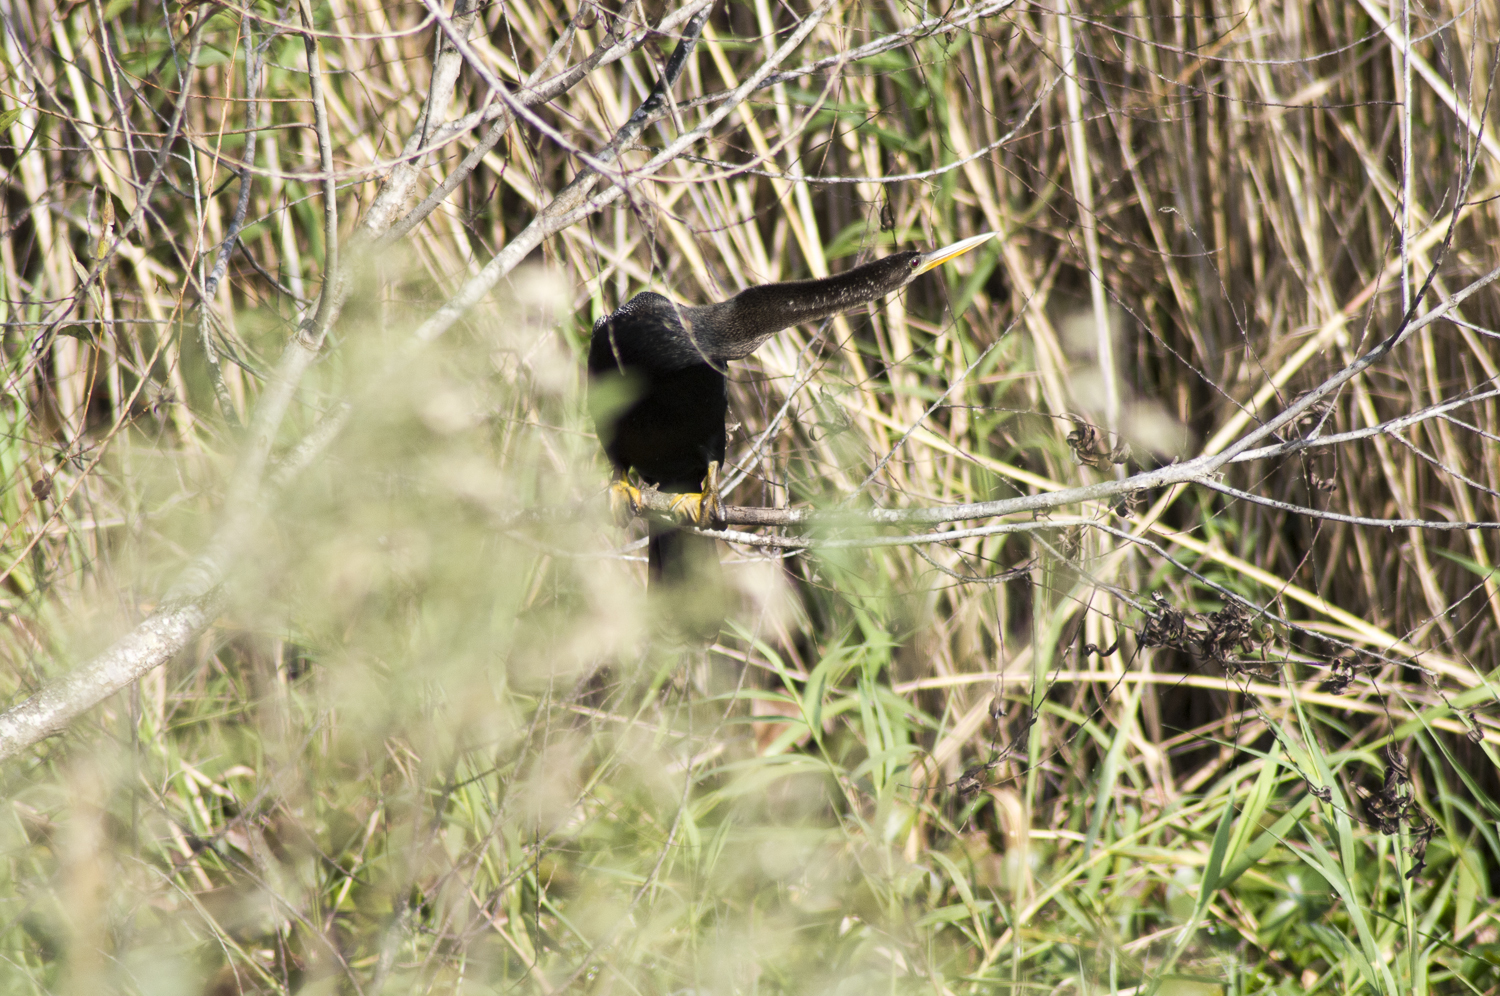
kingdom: Animalia
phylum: Chordata
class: Aves
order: Suliformes
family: Anhingidae
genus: Anhinga
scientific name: Anhinga anhinga
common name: Anhinga
